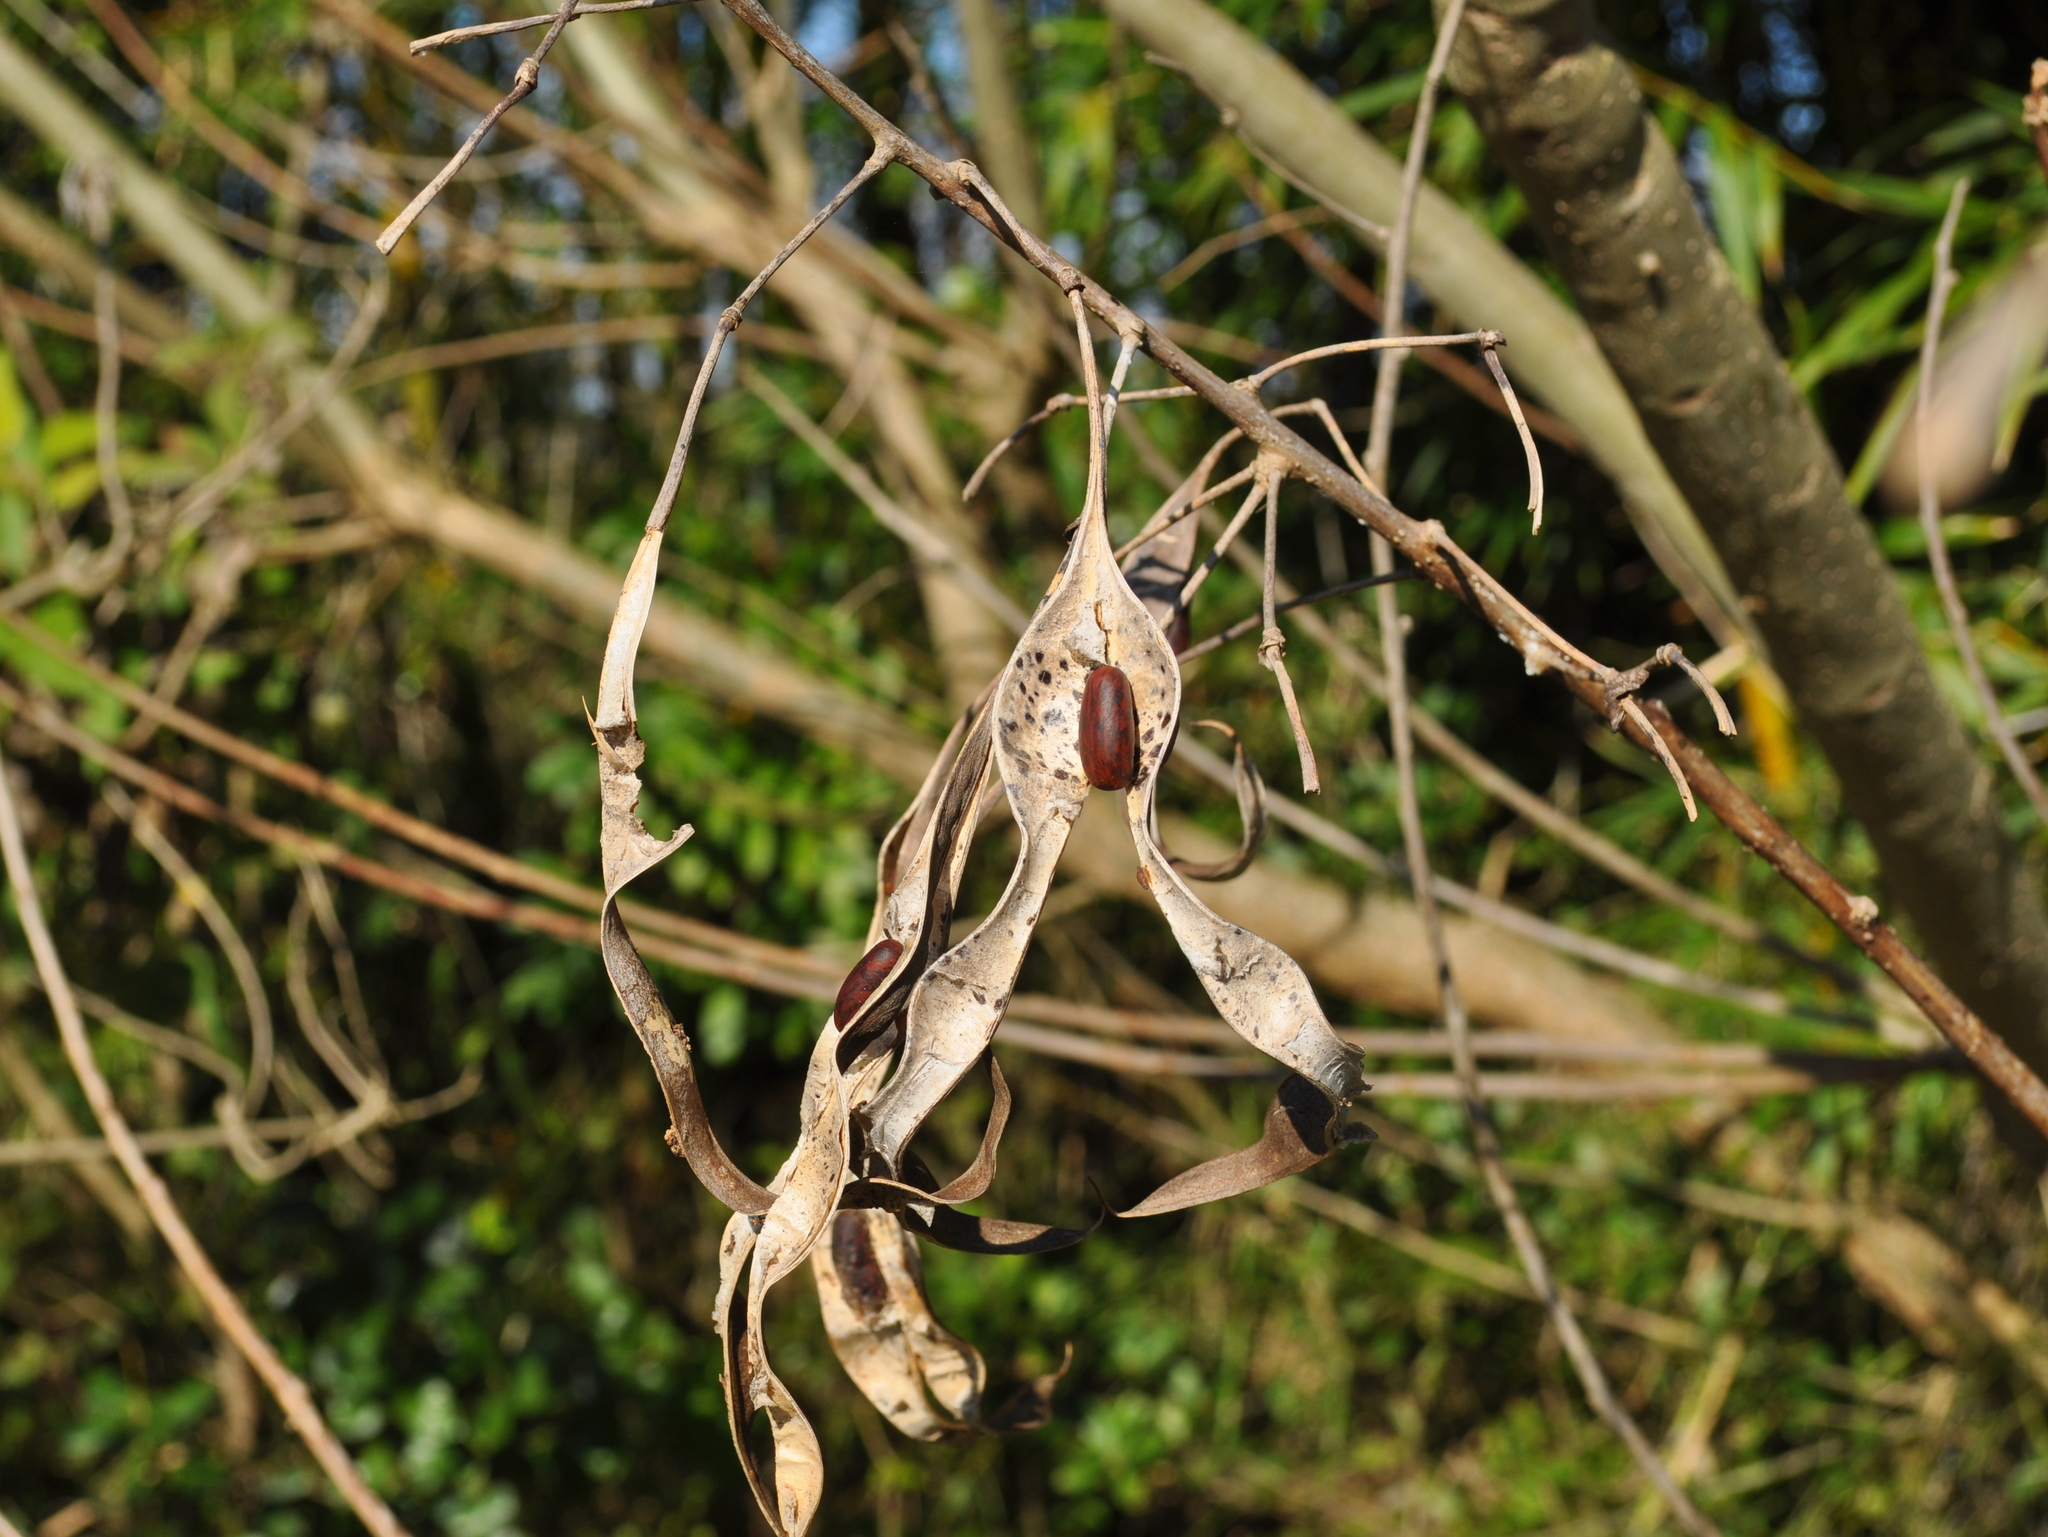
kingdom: Plantae
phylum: Tracheophyta
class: Magnoliopsida
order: Fabales
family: Fabaceae
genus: Erythrina
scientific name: Erythrina crista-galli
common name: Cockspur coral tree
